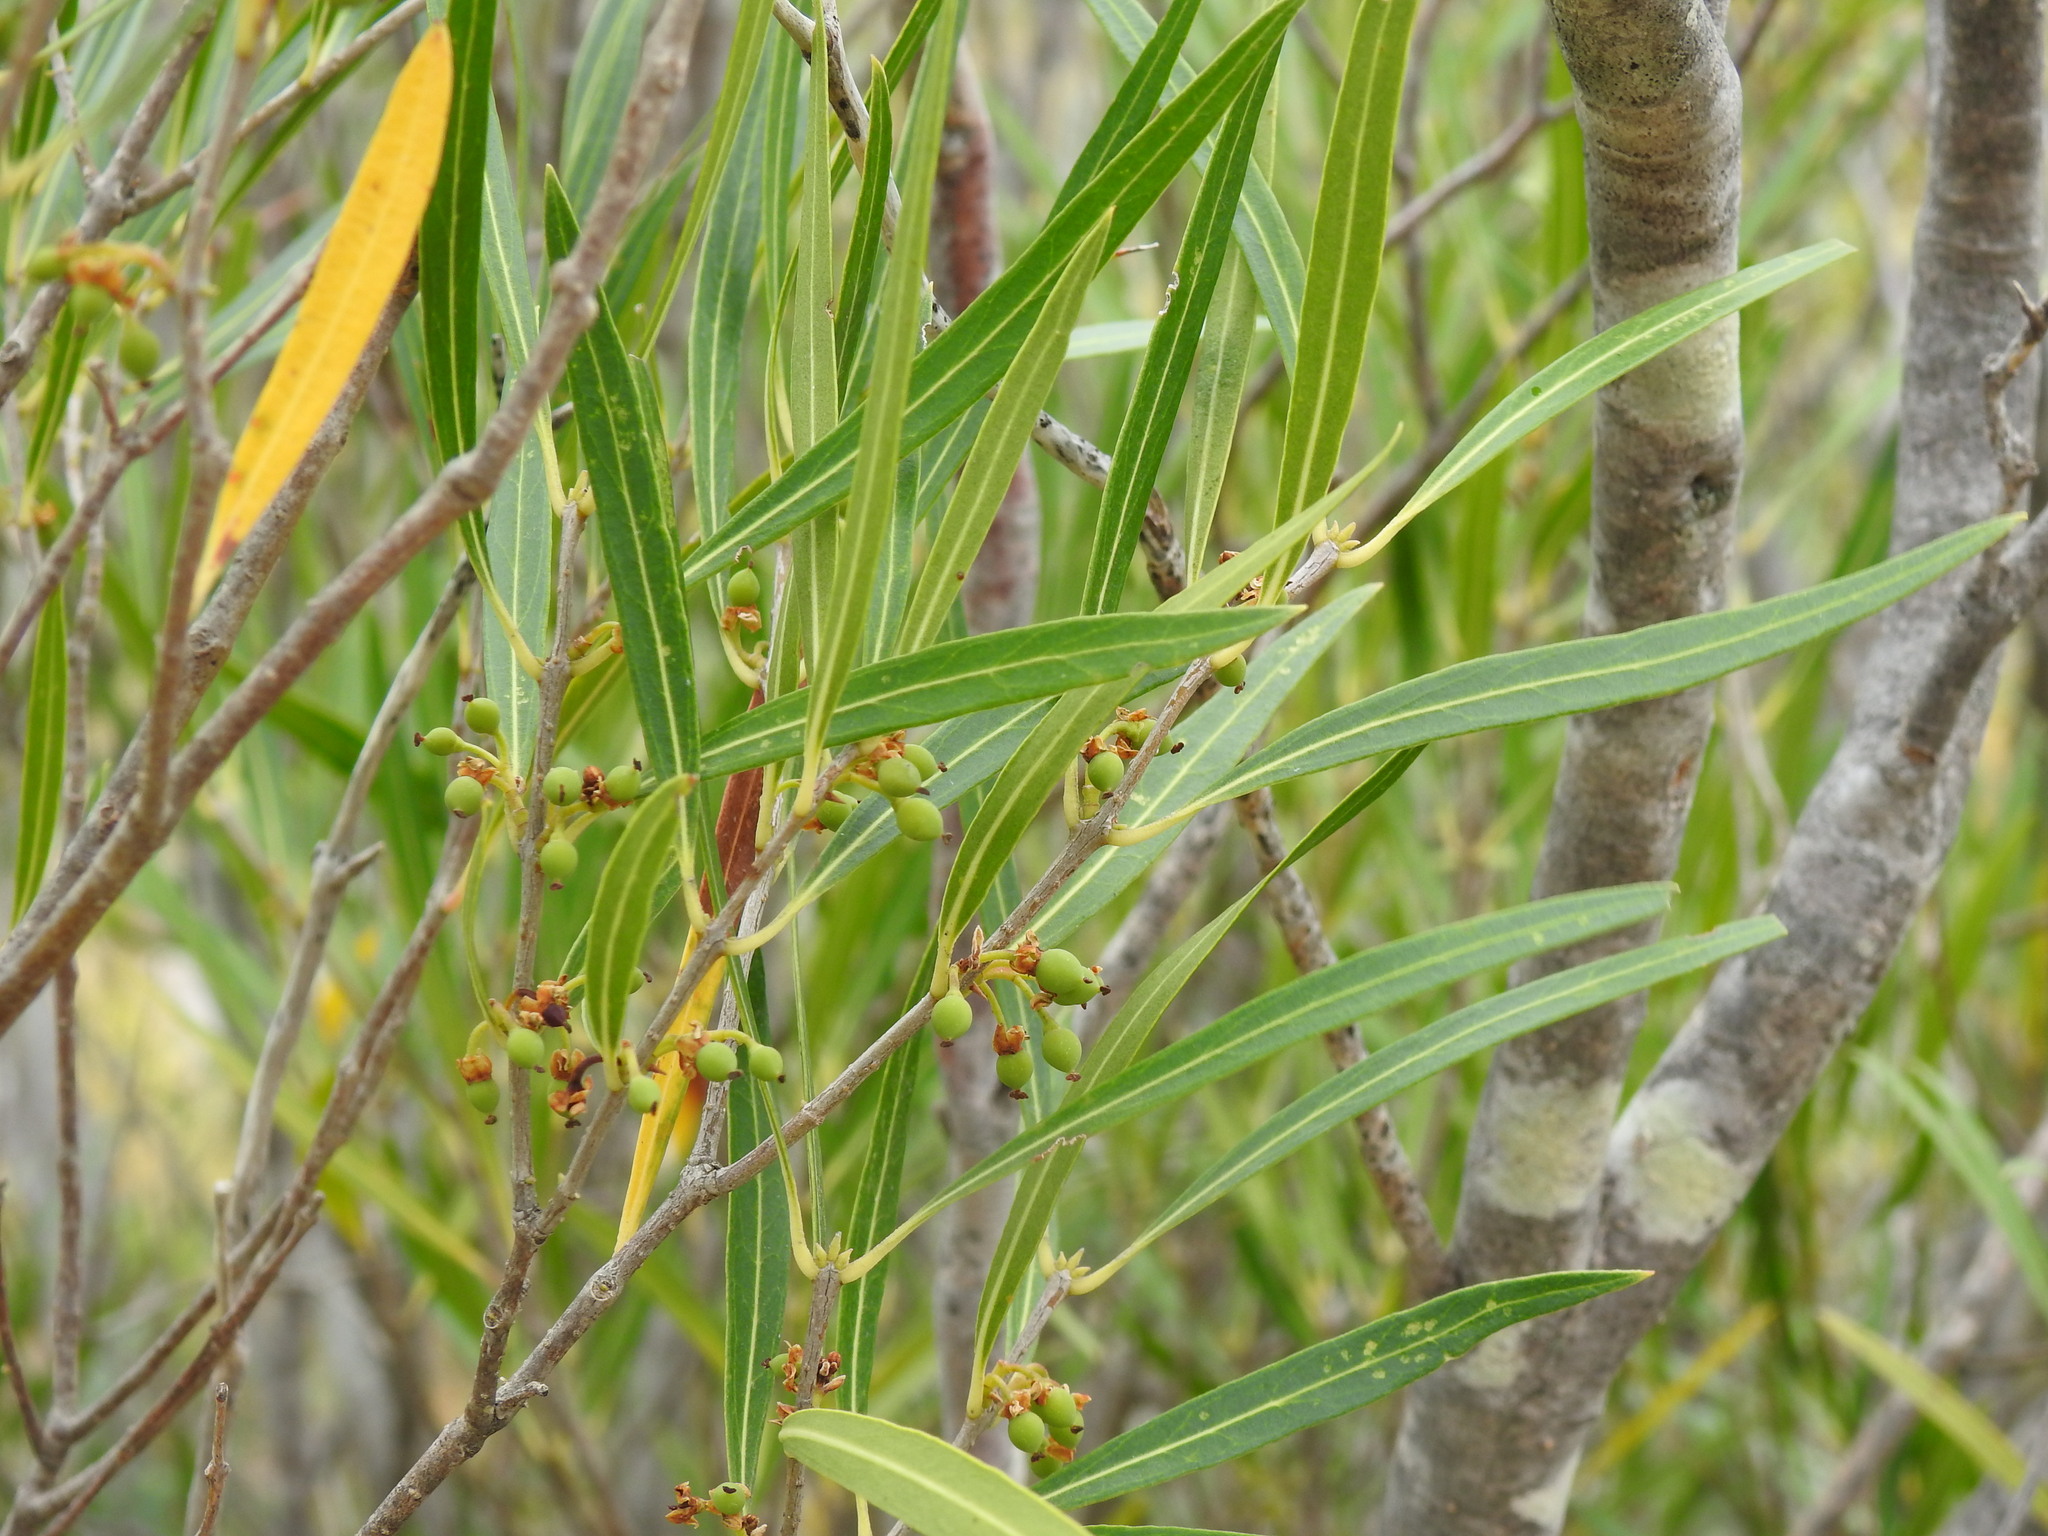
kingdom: Plantae
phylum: Tracheophyta
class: Magnoliopsida
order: Lamiales
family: Oleaceae
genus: Phillyrea
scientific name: Phillyrea angustifolia
